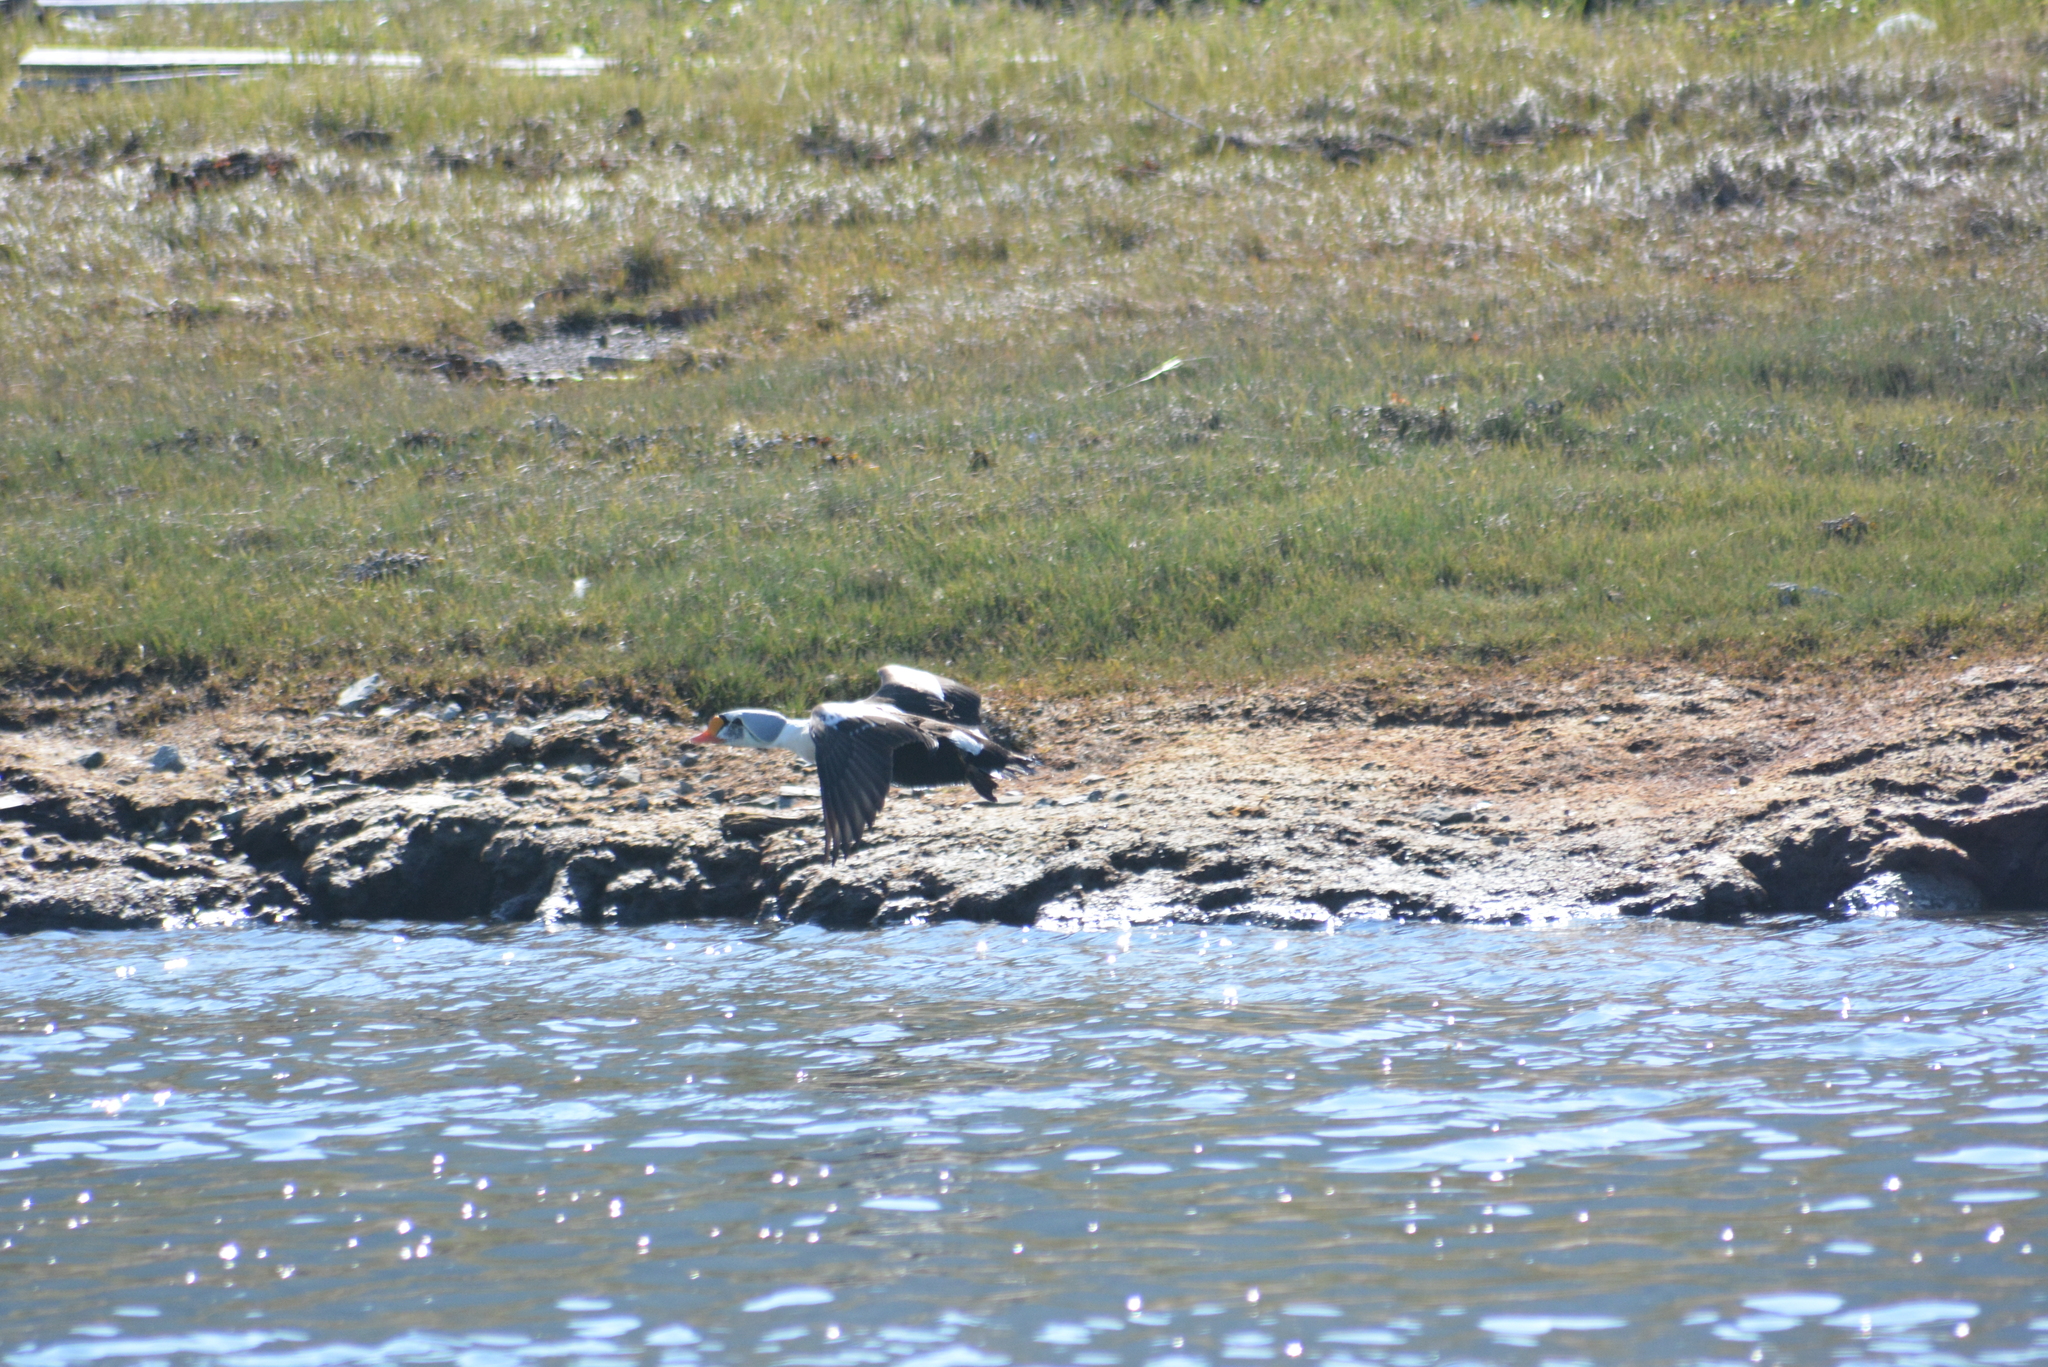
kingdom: Animalia
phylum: Chordata
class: Aves
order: Anseriformes
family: Anatidae
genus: Somateria
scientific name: Somateria spectabilis
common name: King eider
